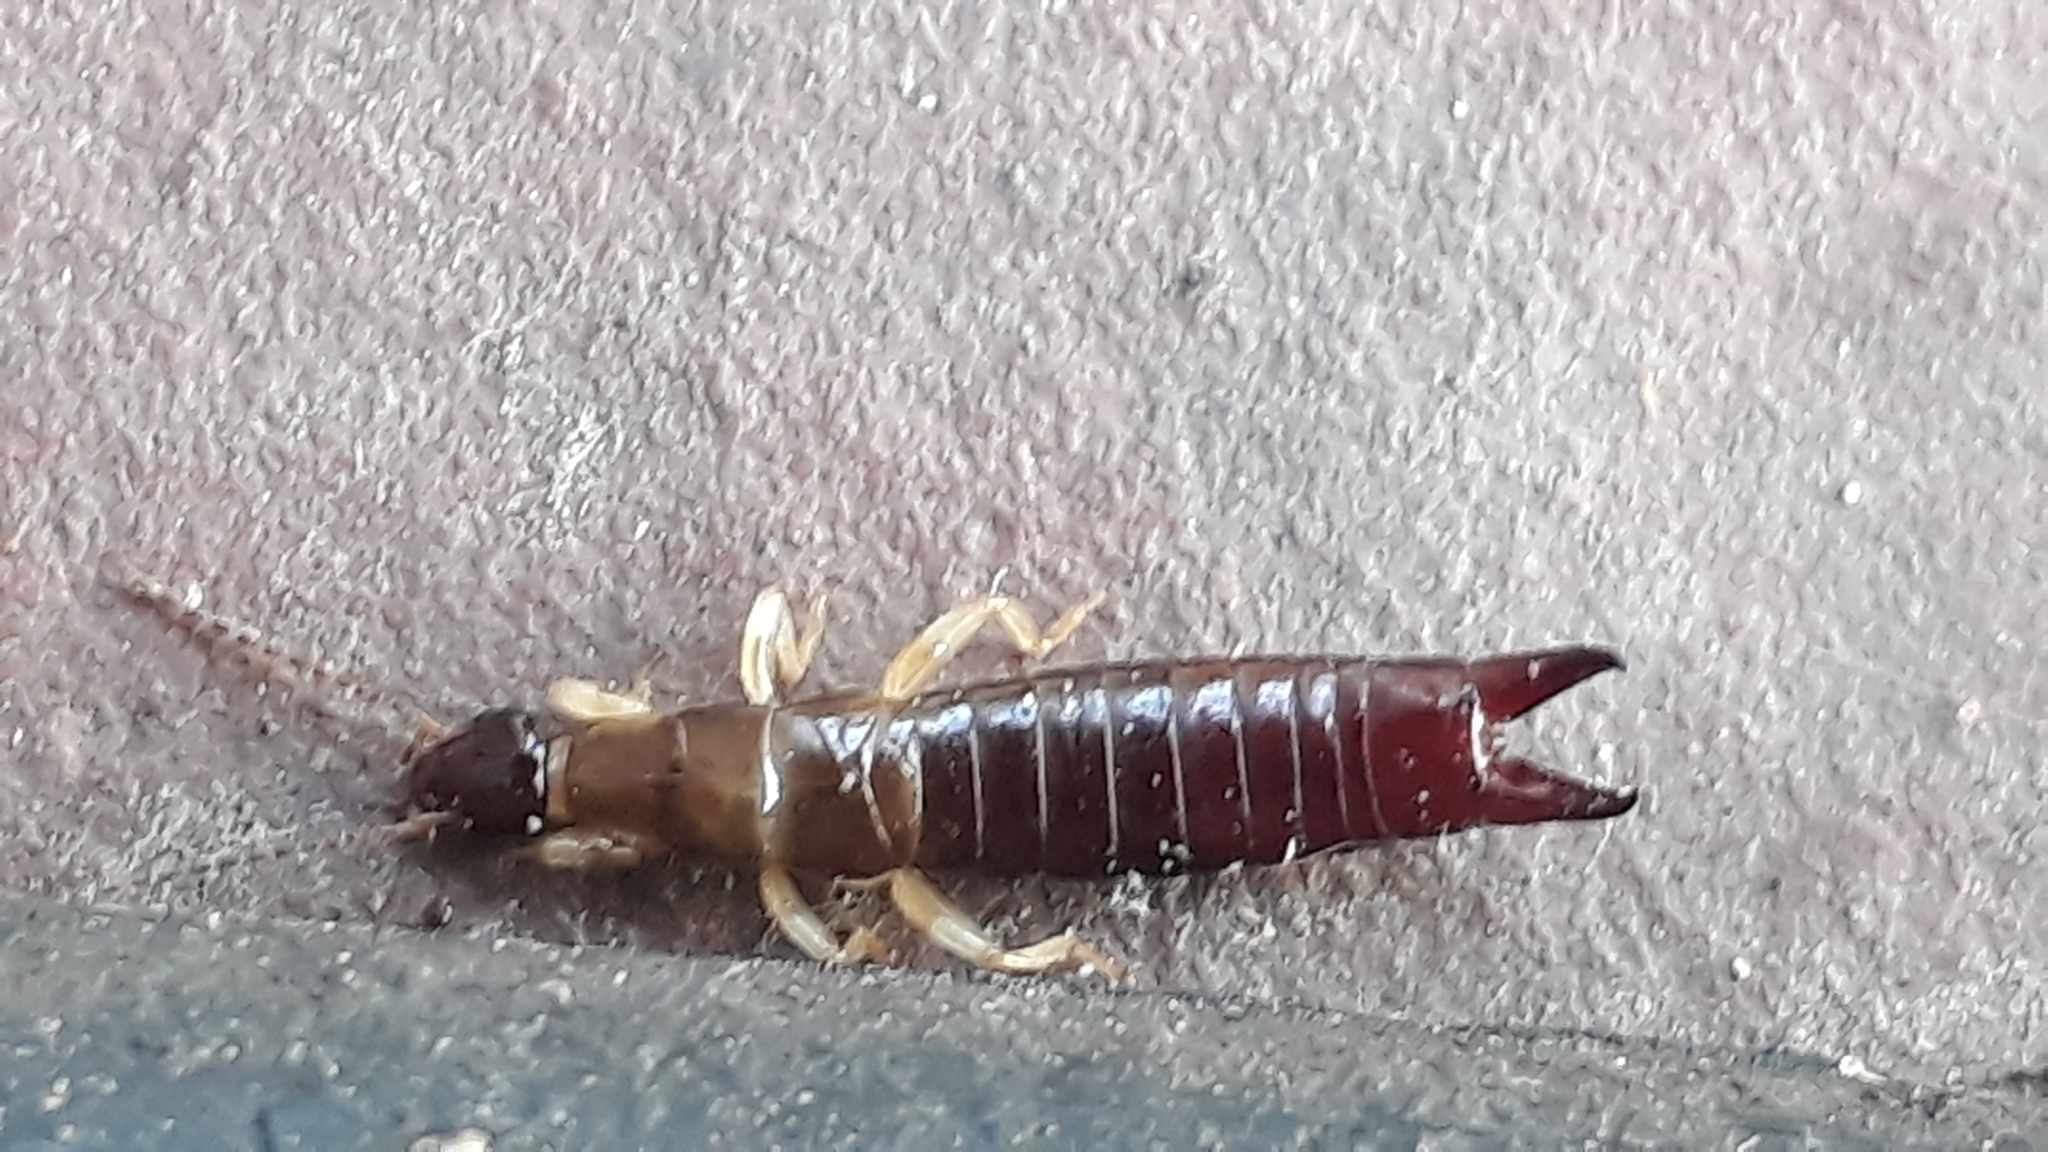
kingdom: Animalia
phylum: Arthropoda
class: Insecta
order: Dermaptera
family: Anisolabididae
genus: Euborellia
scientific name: Euborellia annulipes
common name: Ringlegged earwig
